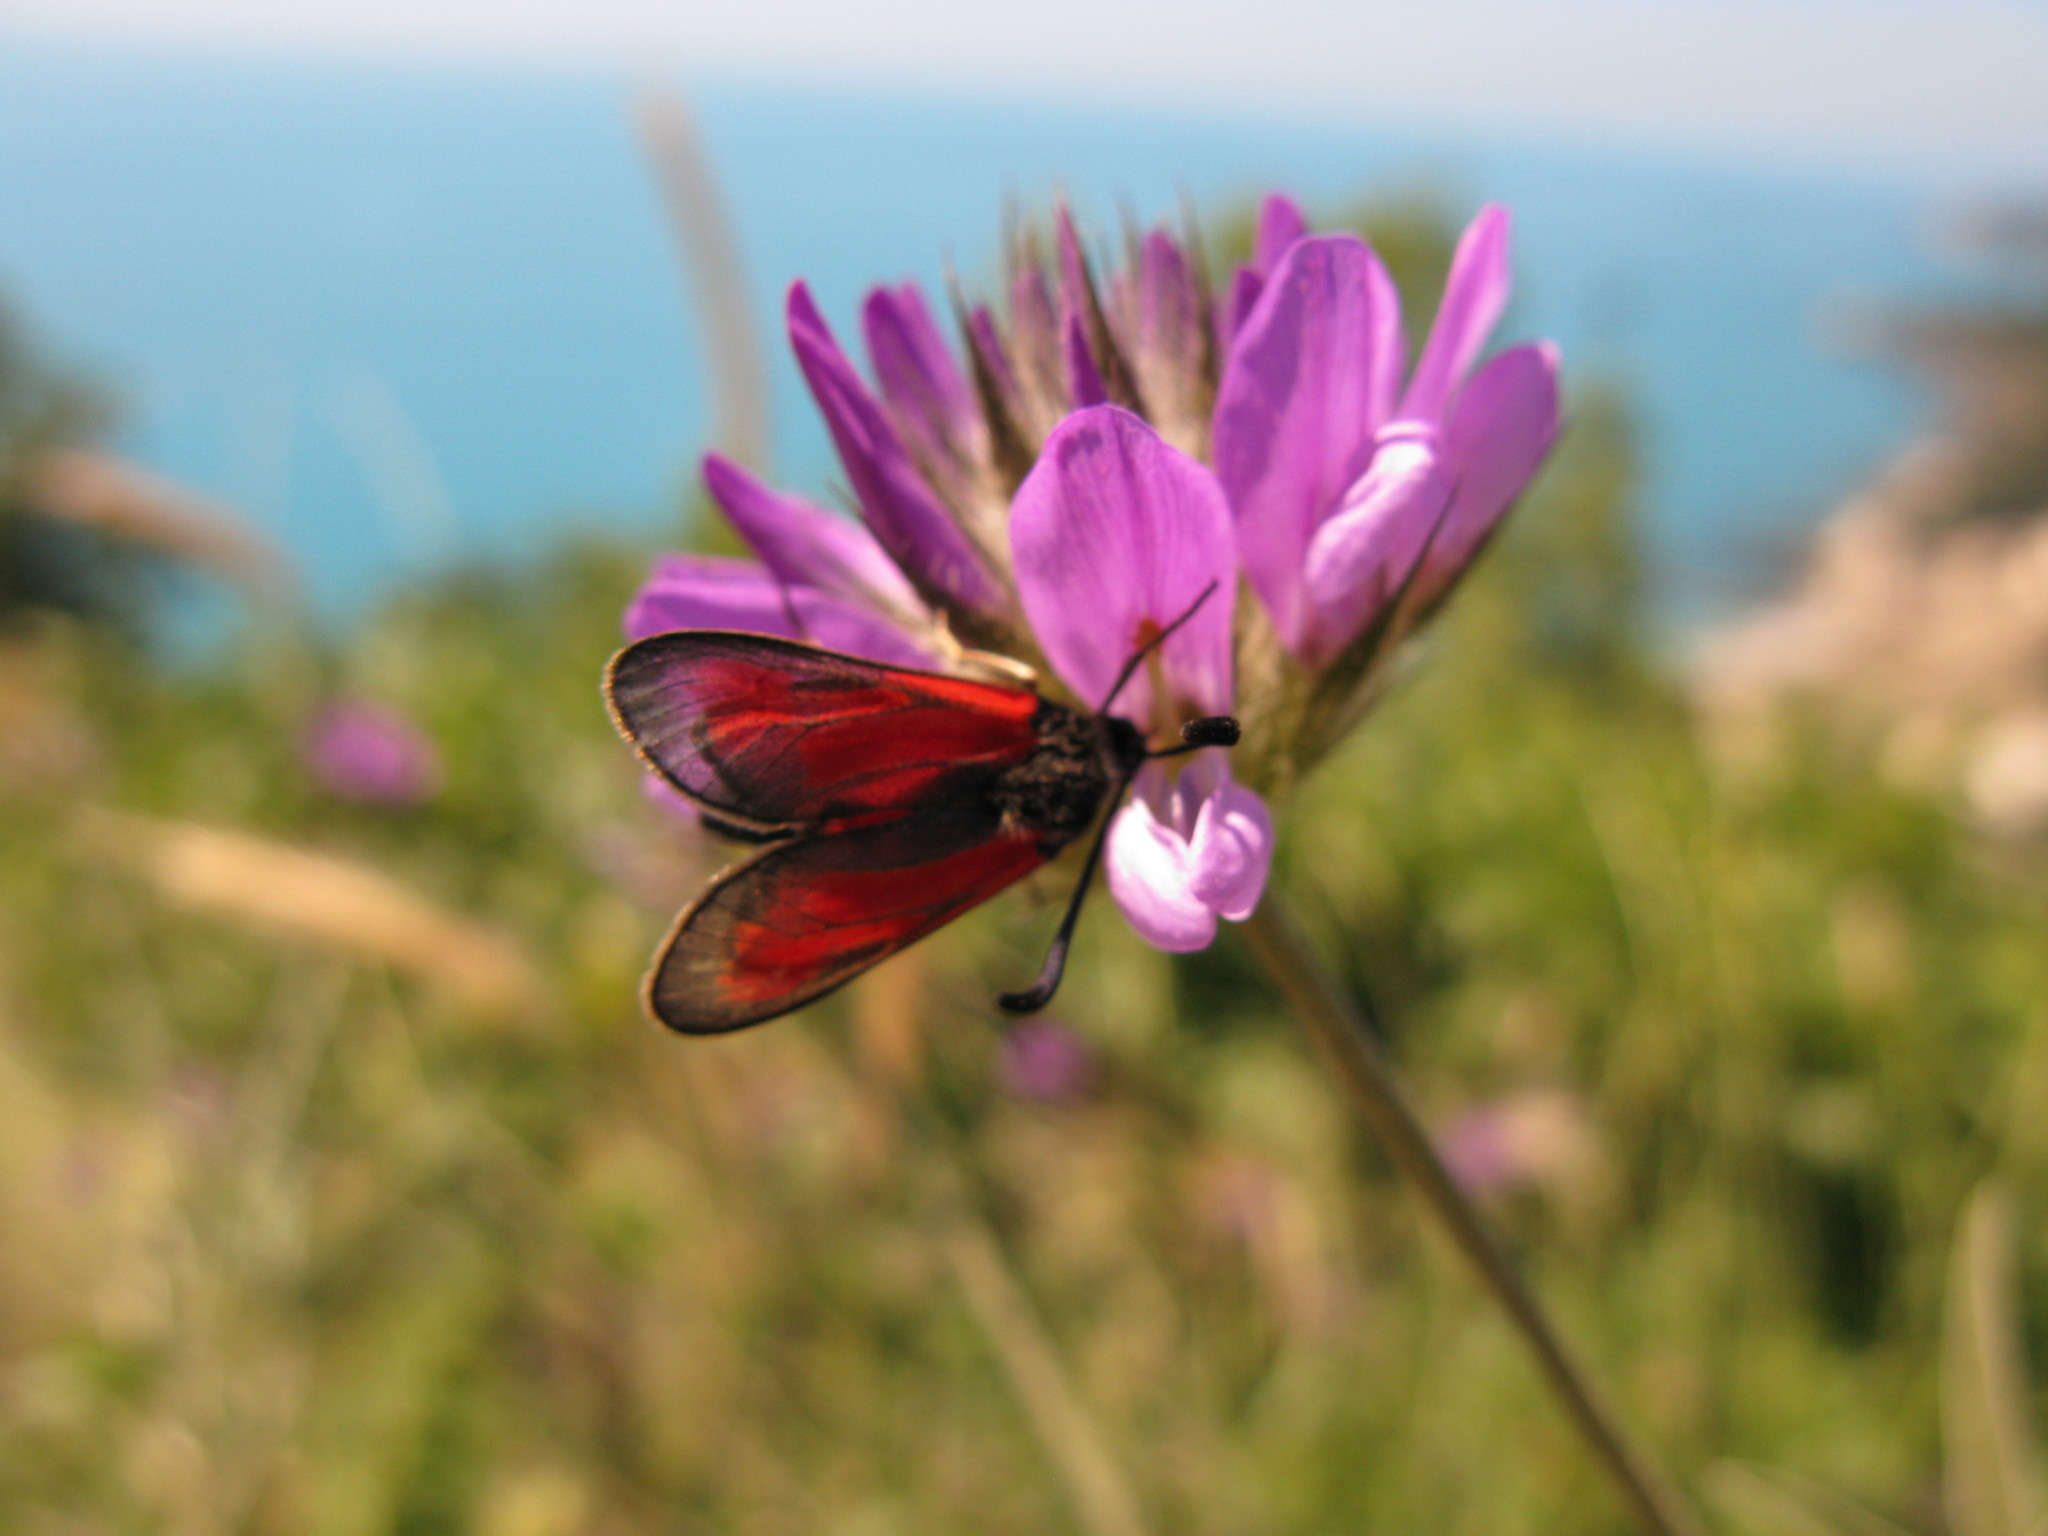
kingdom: Animalia
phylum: Arthropoda
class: Insecta
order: Lepidoptera
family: Zygaenidae
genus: Zygaena
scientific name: Zygaena punctum
